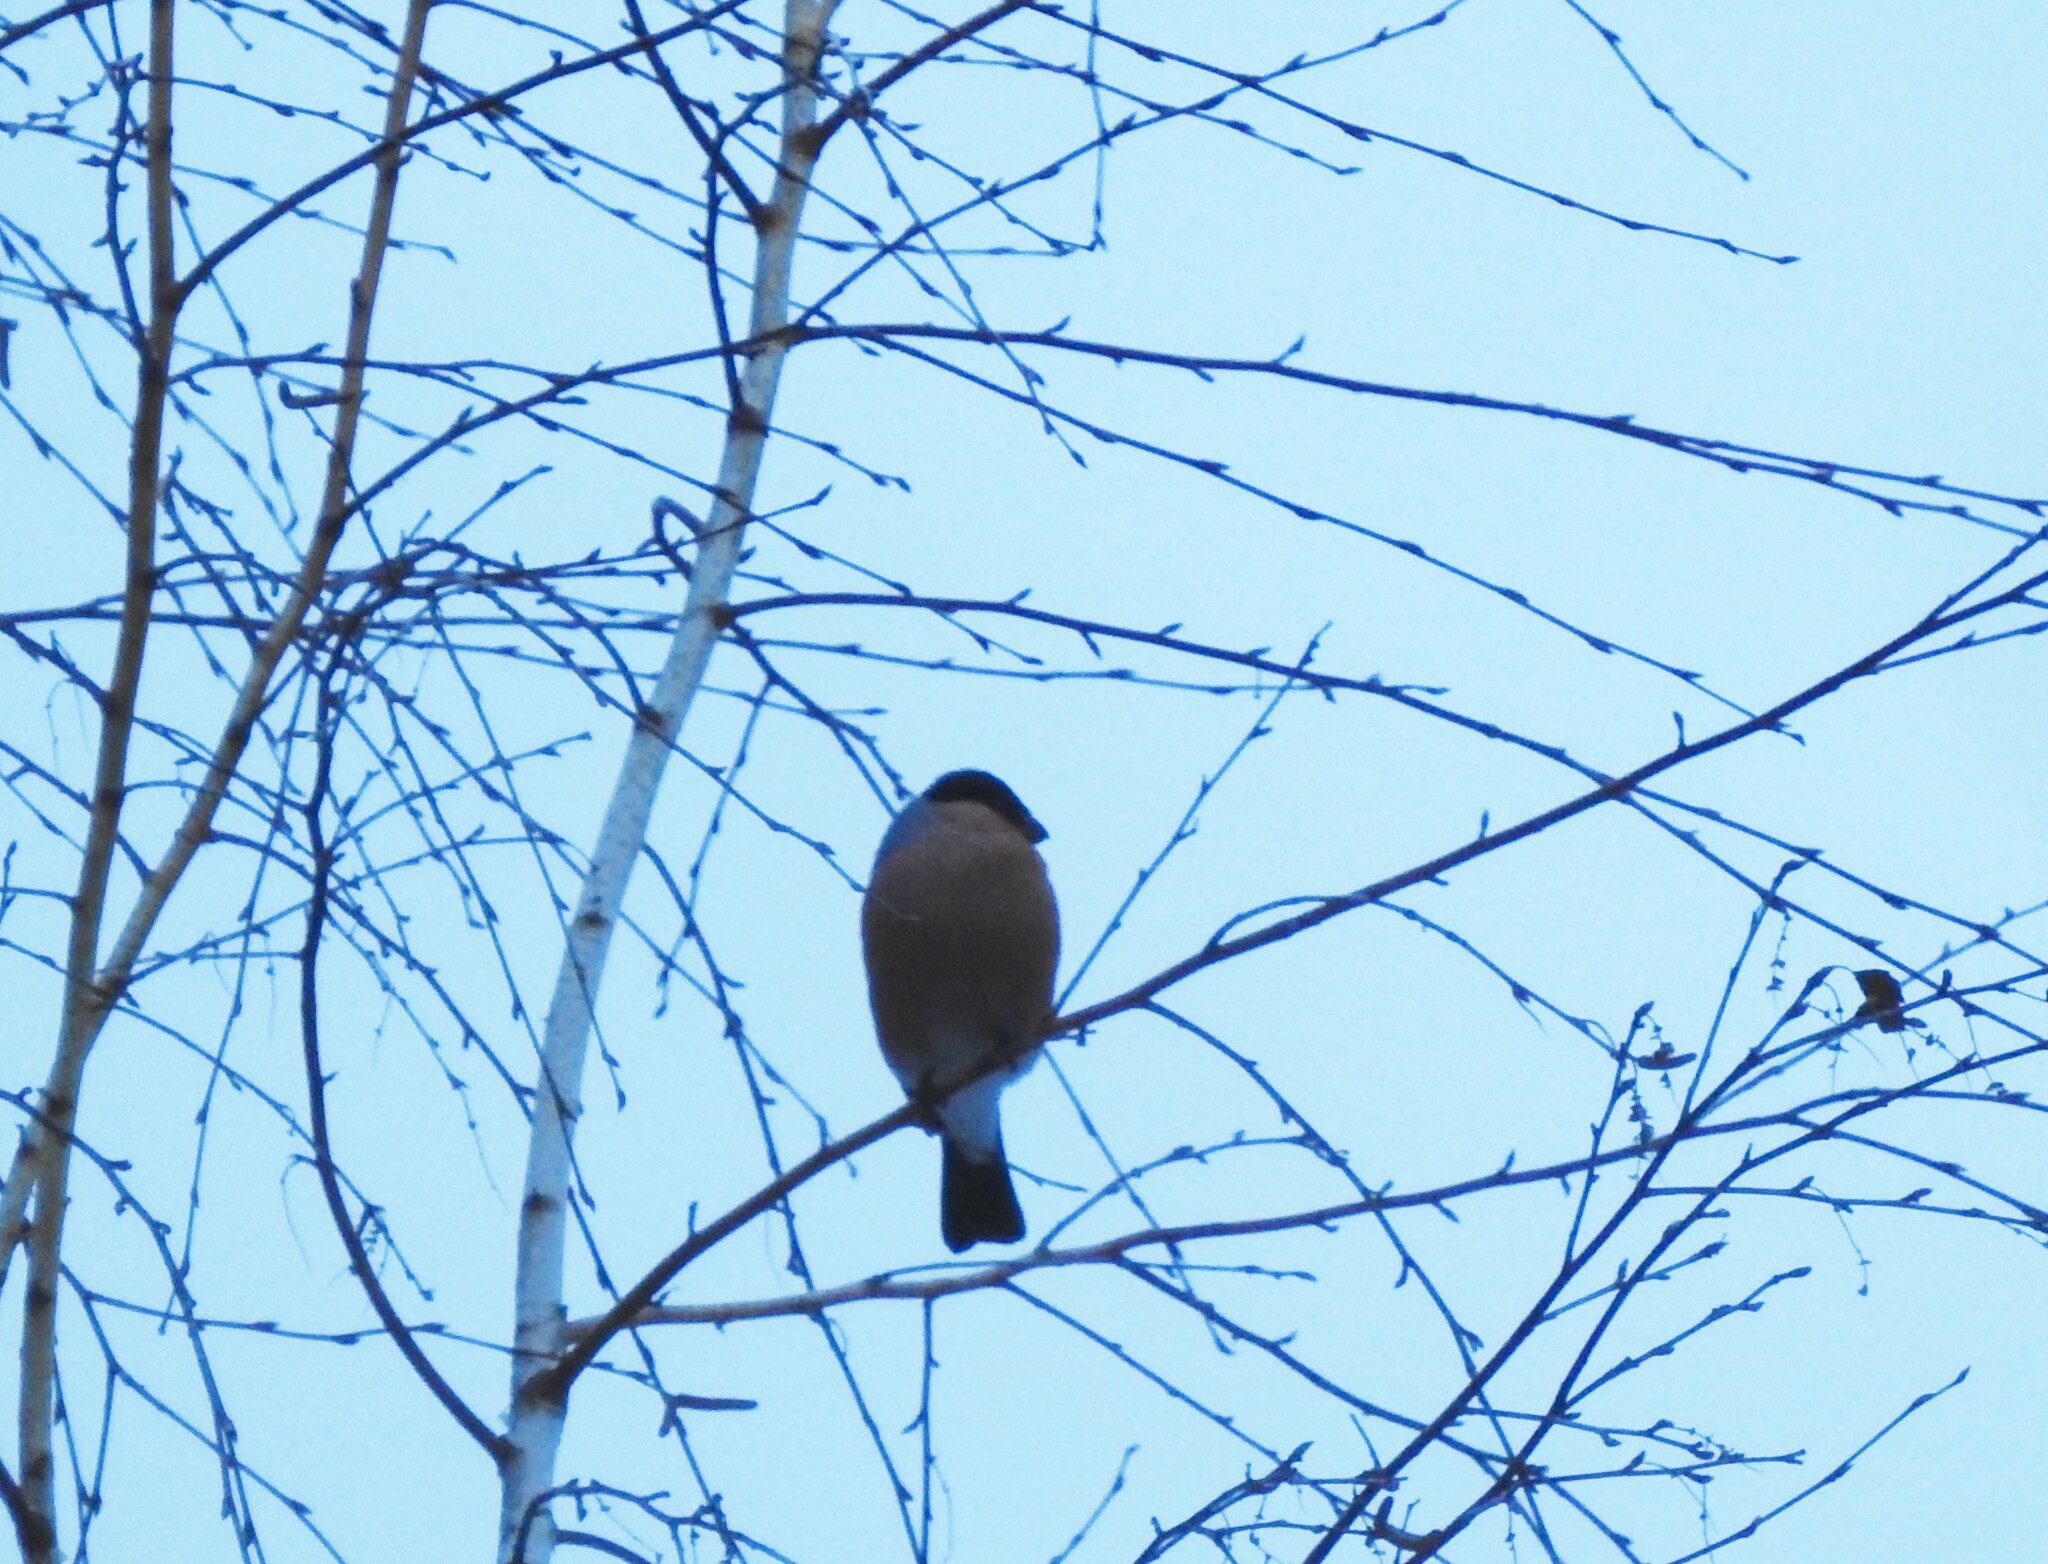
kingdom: Animalia
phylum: Chordata
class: Aves
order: Passeriformes
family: Fringillidae
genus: Pyrrhula
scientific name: Pyrrhula pyrrhula
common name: Eurasian bullfinch
